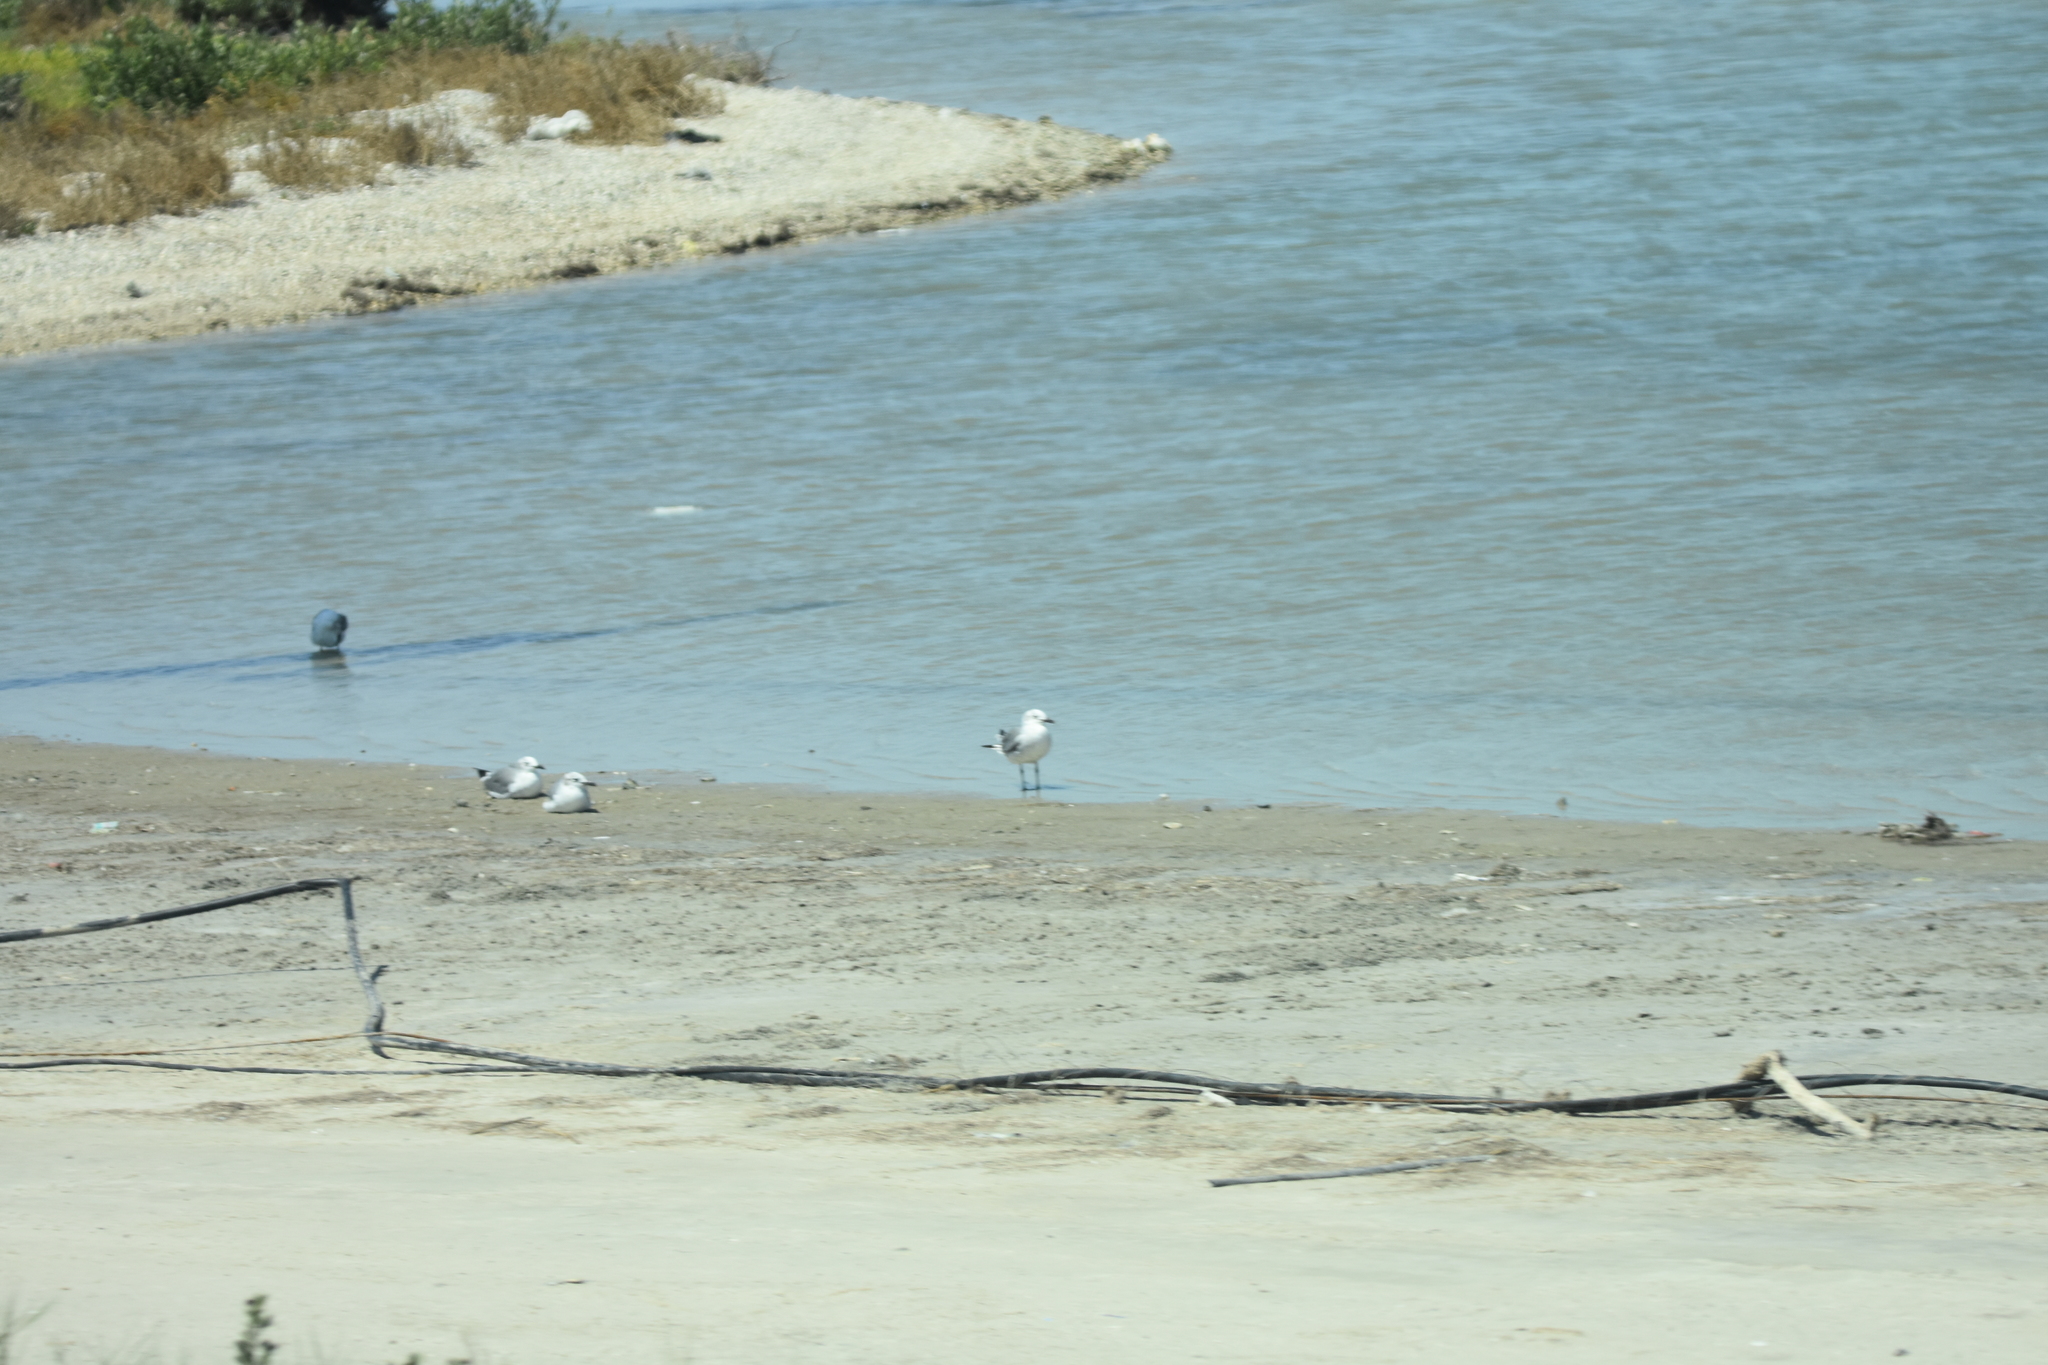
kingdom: Animalia
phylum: Chordata
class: Aves
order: Charadriiformes
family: Laridae
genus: Leucophaeus
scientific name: Leucophaeus atricilla
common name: Laughing gull
